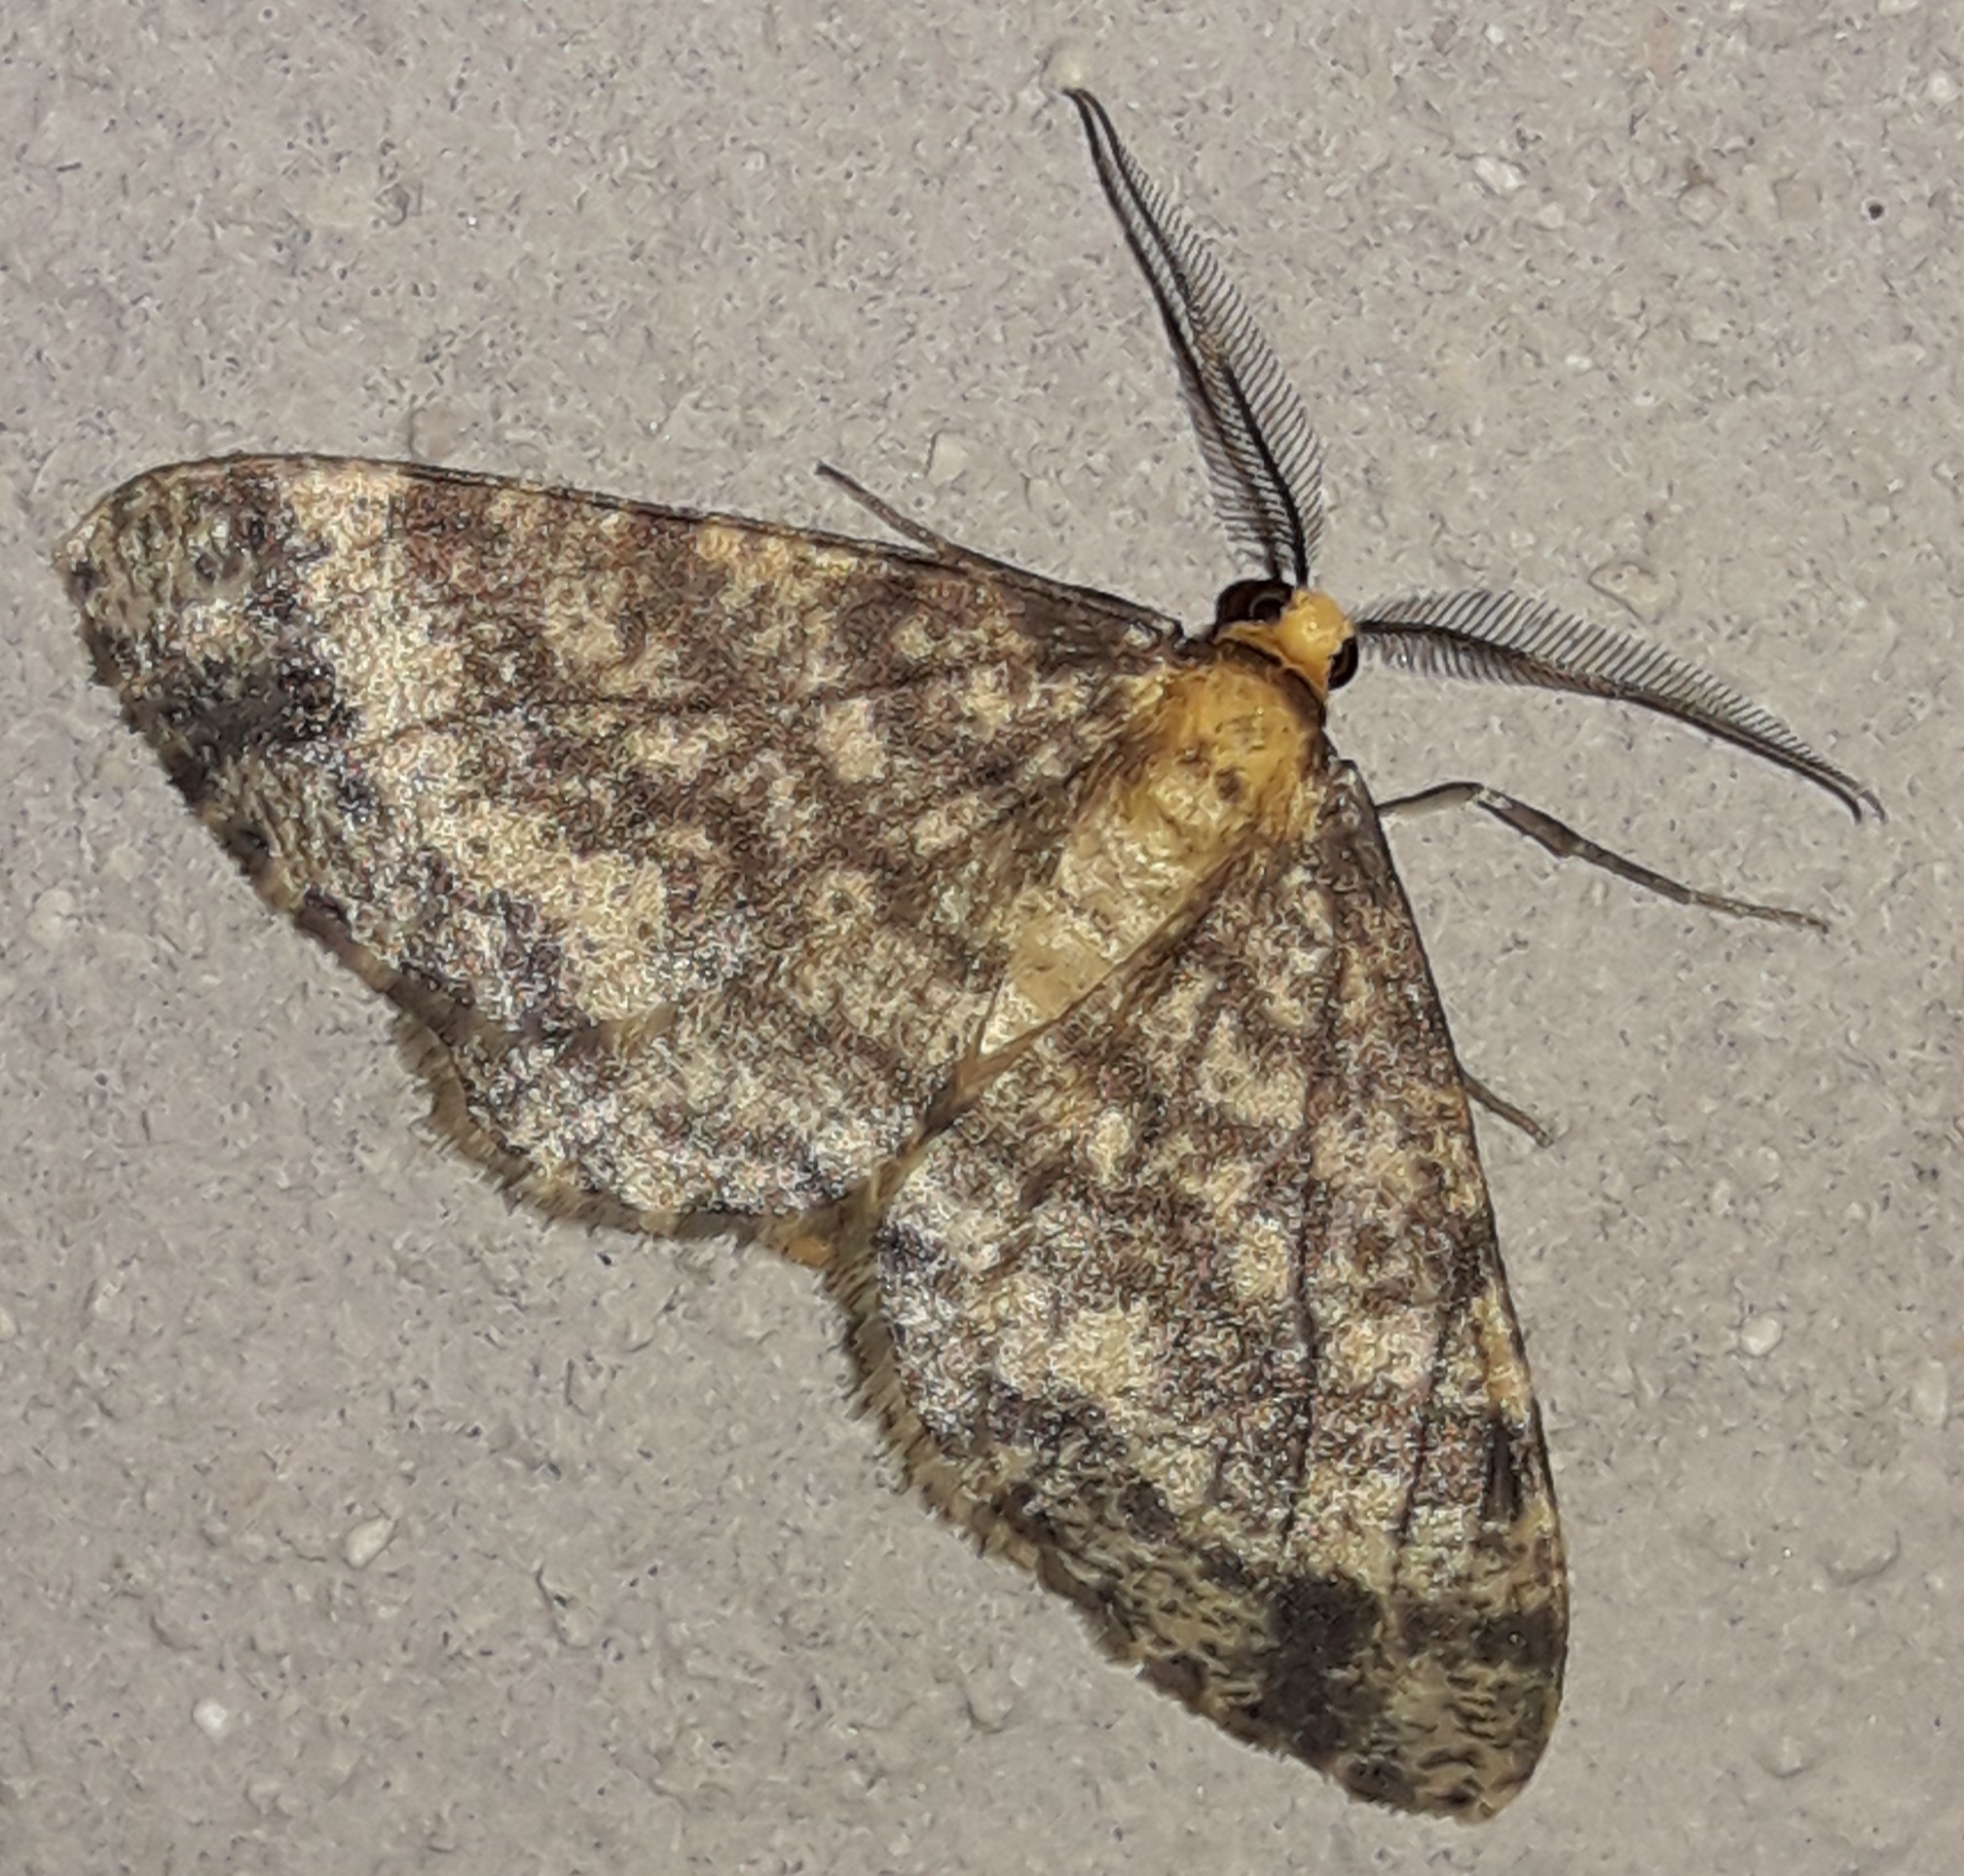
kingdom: Animalia
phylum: Arthropoda
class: Insecta
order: Lepidoptera
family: Geometridae
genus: Melanolophia
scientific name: Melanolophia parma
